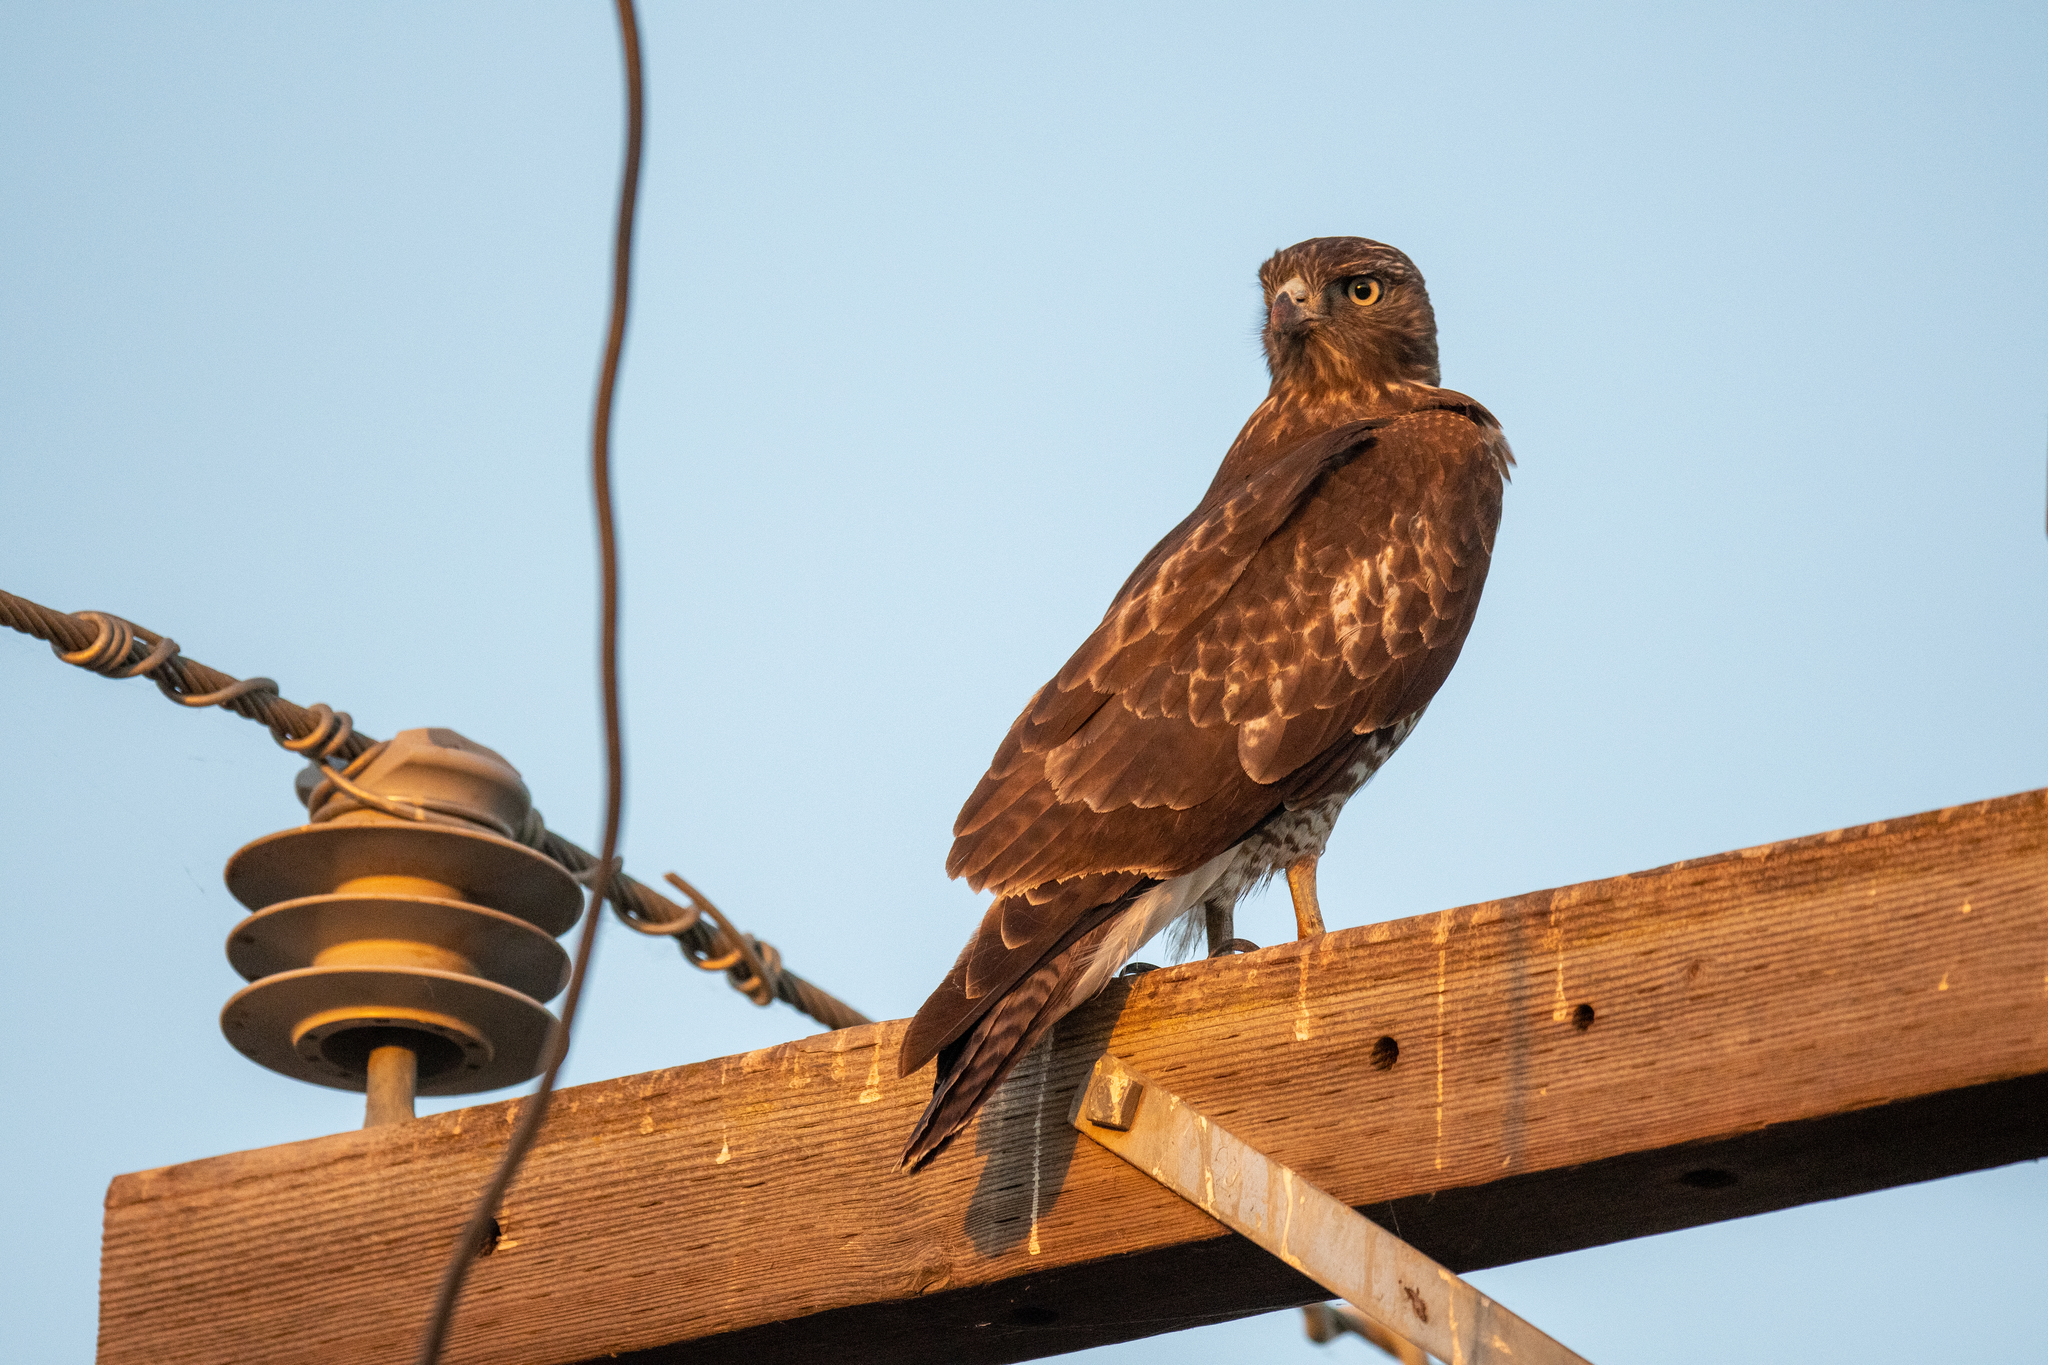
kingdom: Animalia
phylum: Chordata
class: Aves
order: Accipitriformes
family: Accipitridae
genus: Buteo
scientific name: Buteo jamaicensis
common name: Red-tailed hawk
